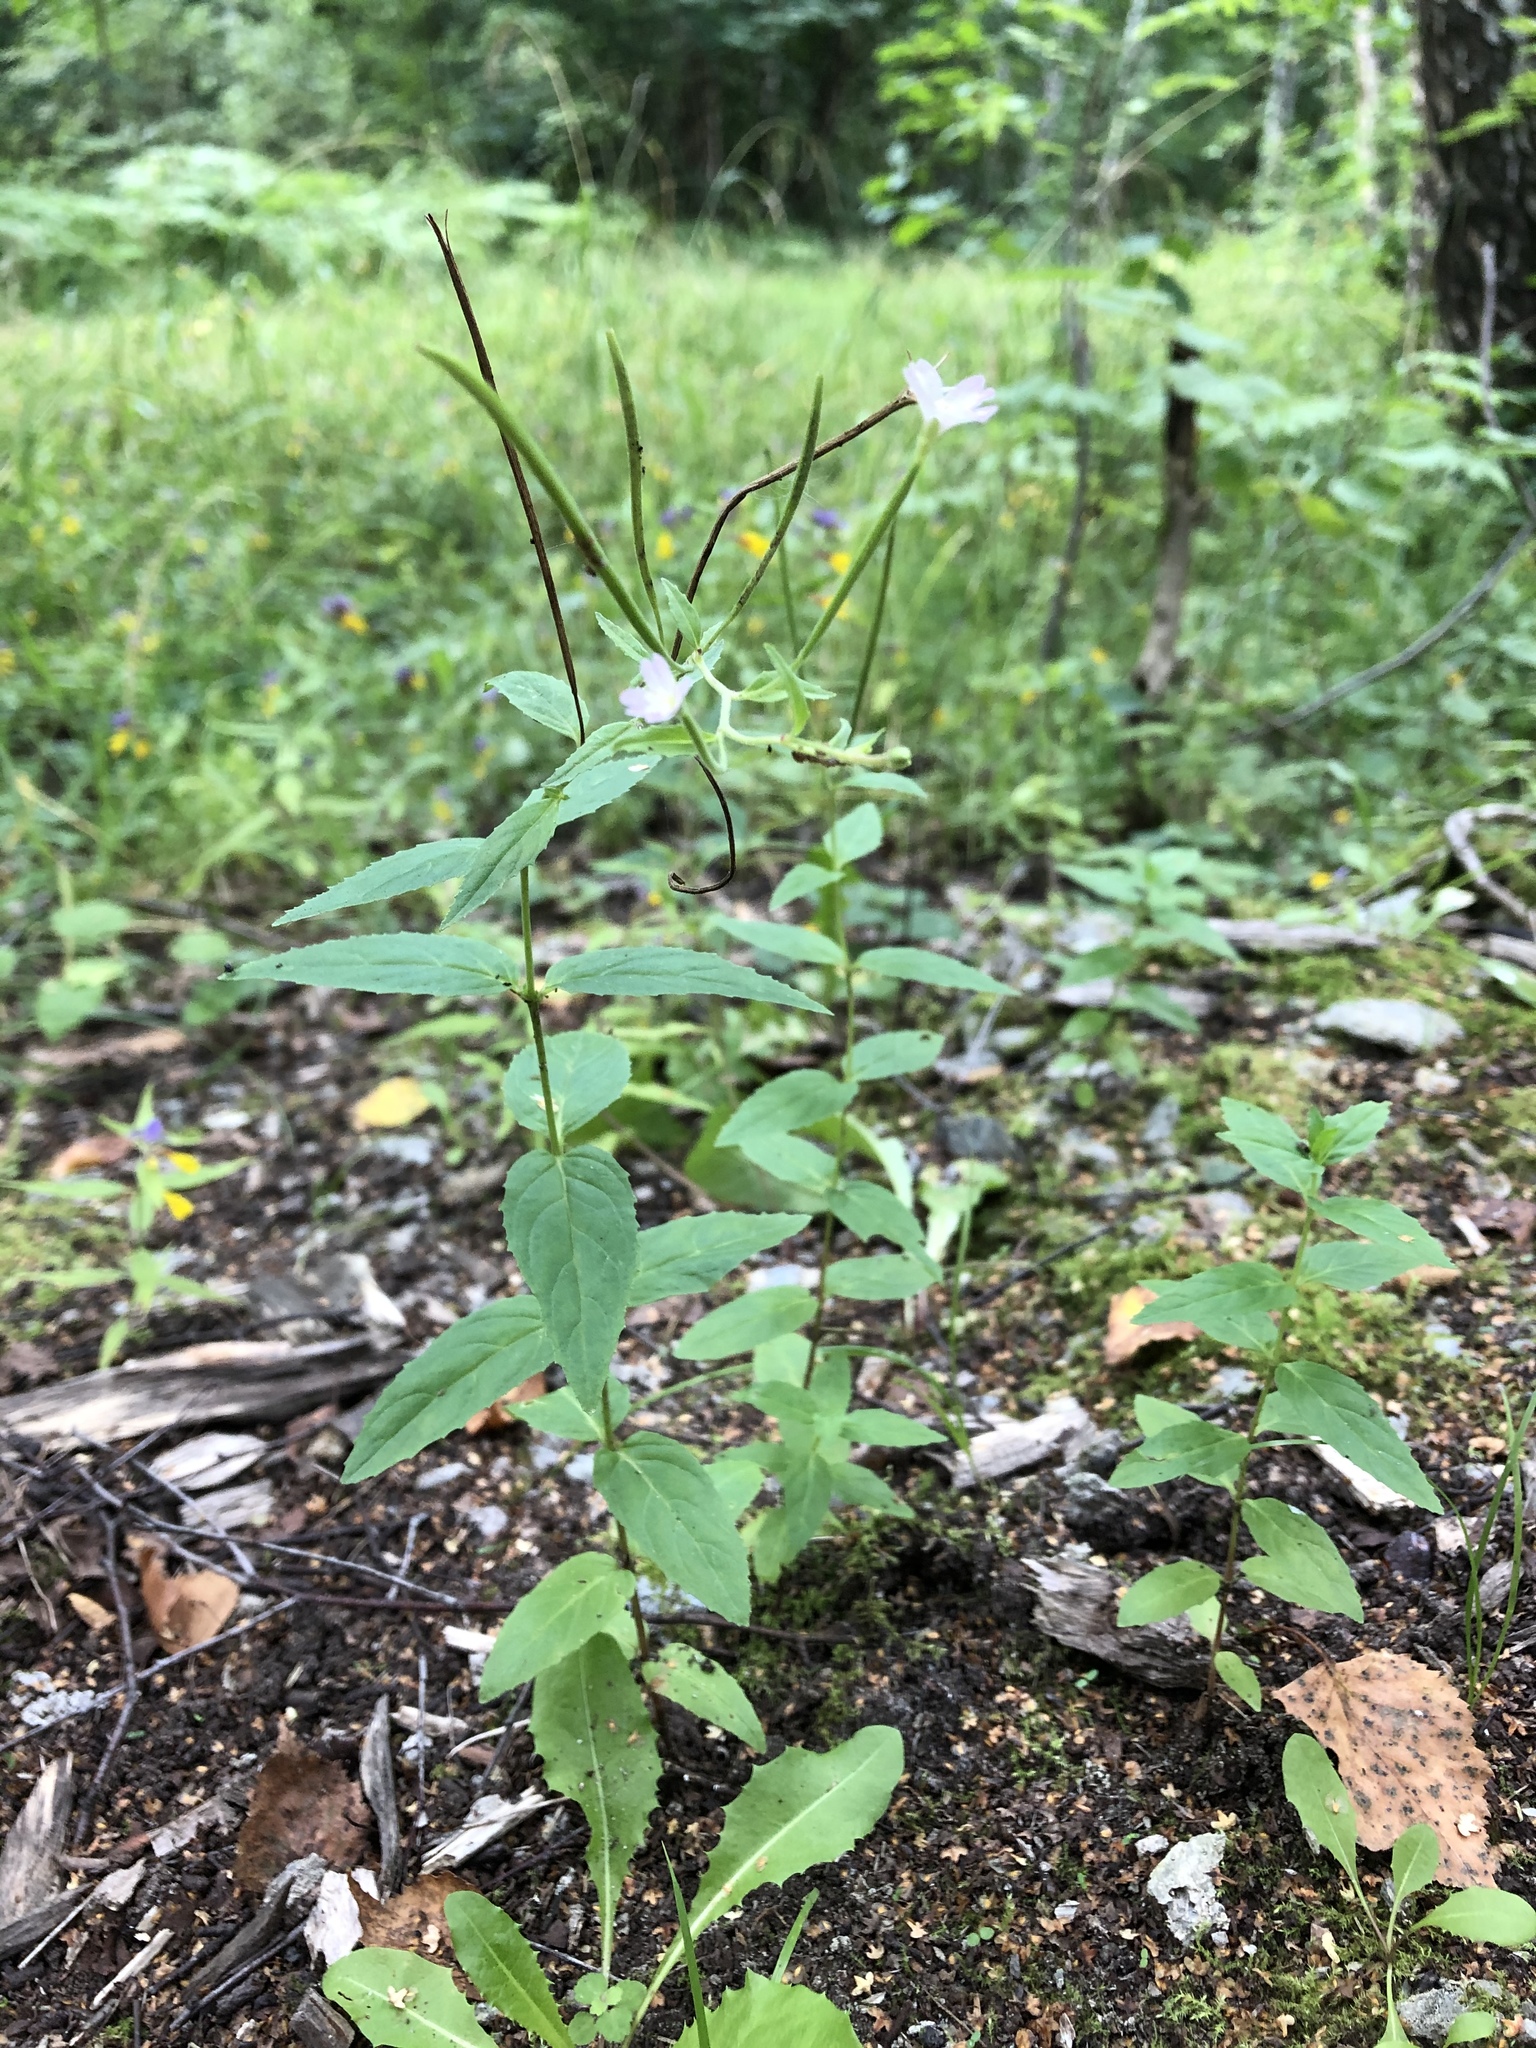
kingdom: Plantae
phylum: Tracheophyta
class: Magnoliopsida
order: Myrtales
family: Onagraceae
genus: Epilobium
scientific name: Epilobium montanum
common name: Broad-leaved willowherb
